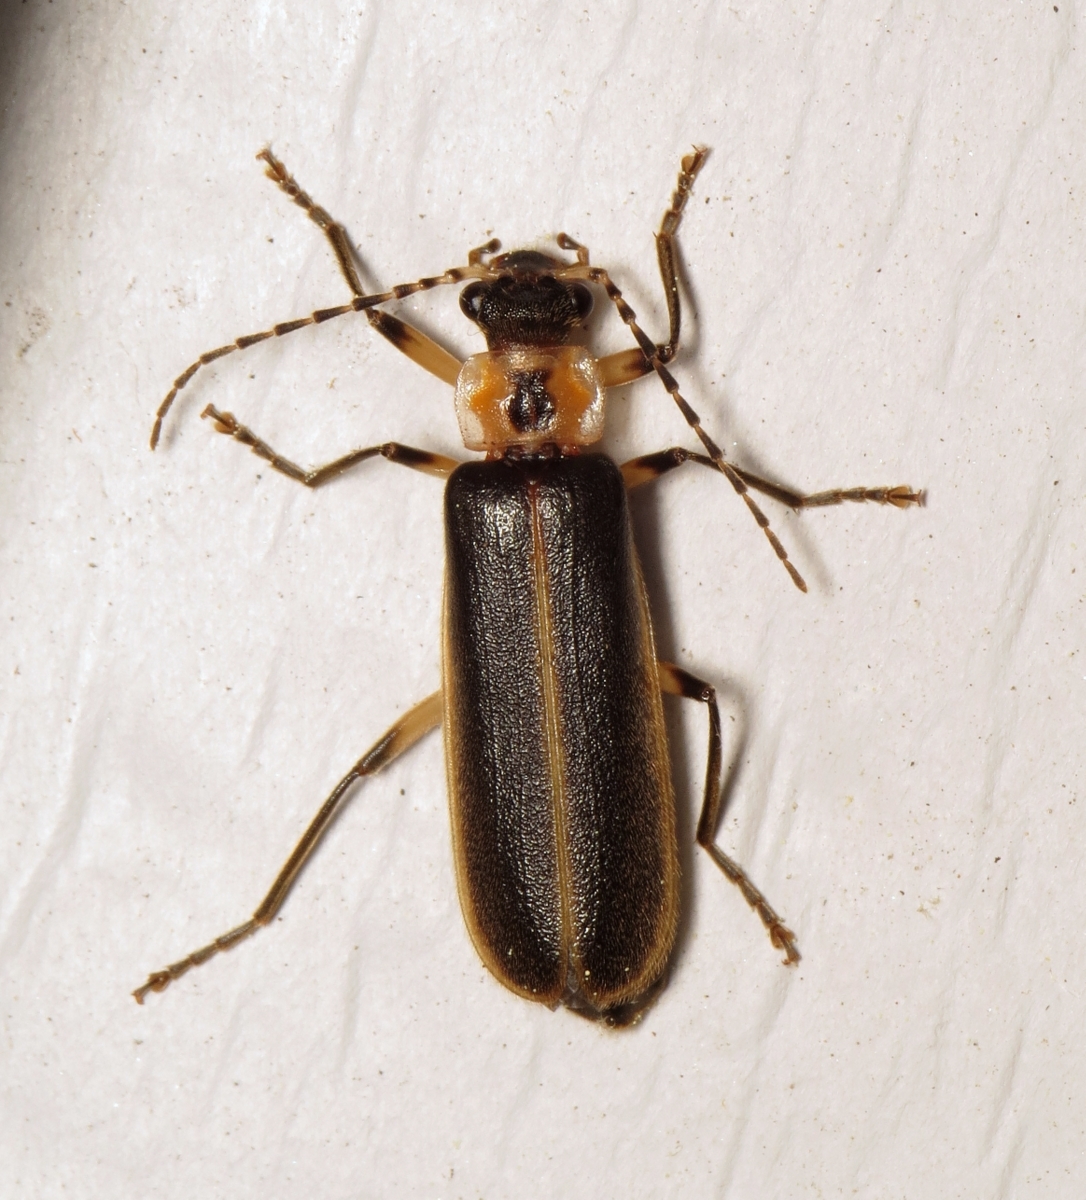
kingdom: Animalia
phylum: Arthropoda
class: Insecta
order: Coleoptera
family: Cantharidae
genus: Podabrus
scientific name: Podabrus basilaris
